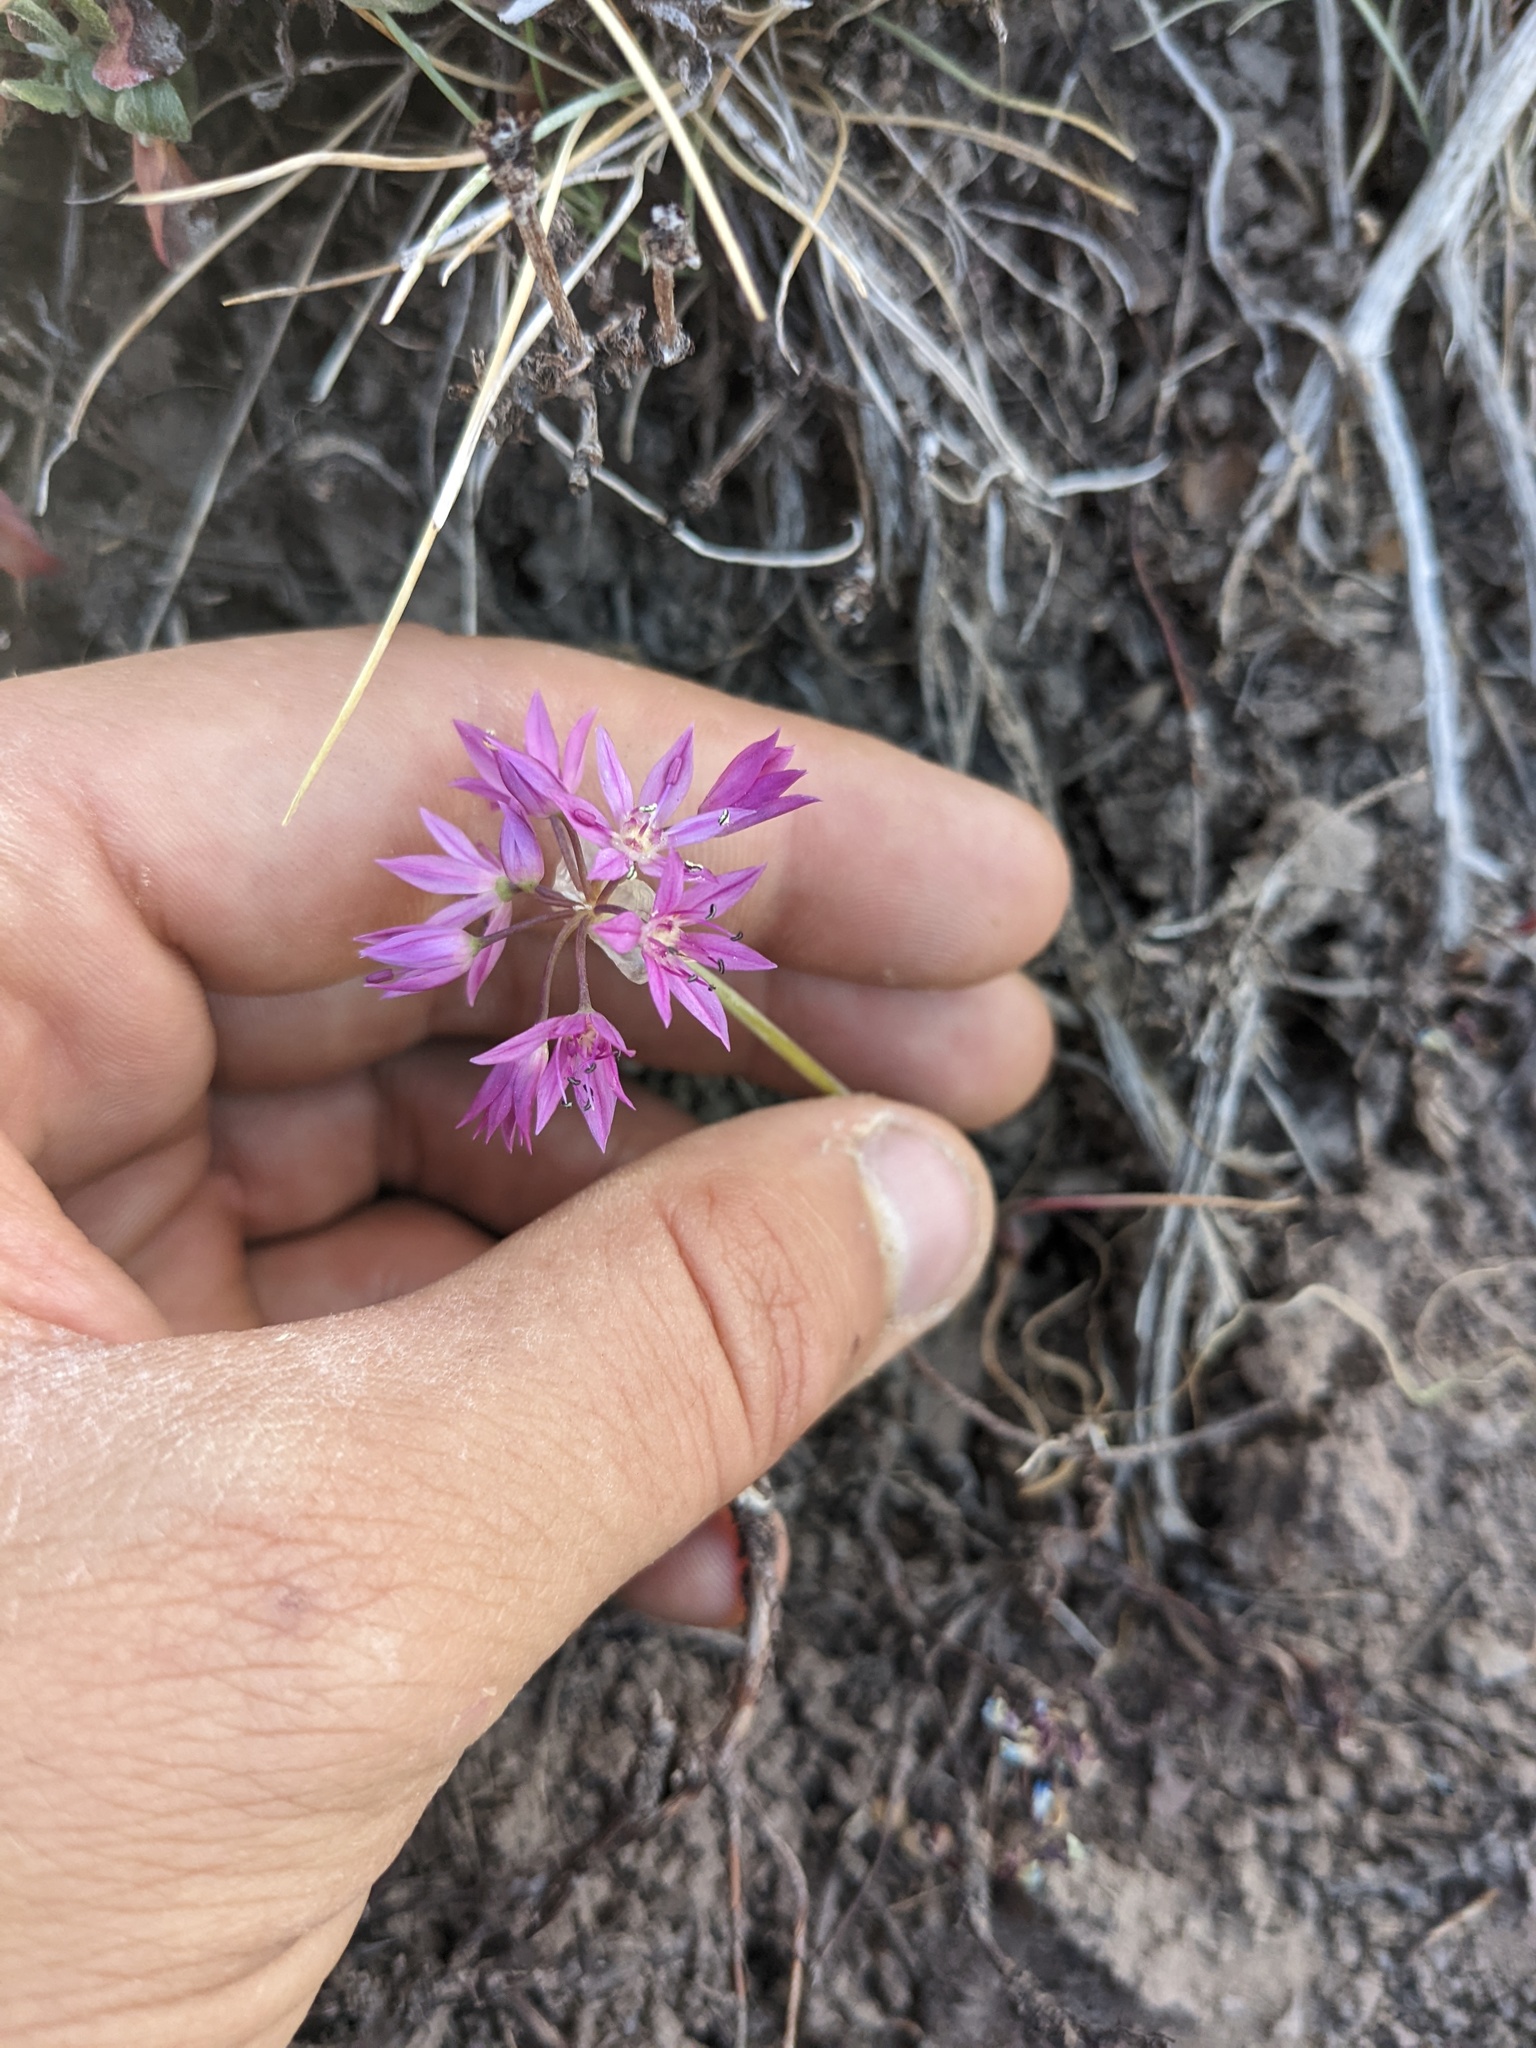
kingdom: Plantae
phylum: Tracheophyta
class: Liliopsida
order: Asparagales
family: Amaryllidaceae
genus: Allium
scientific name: Allium bisceptrum
